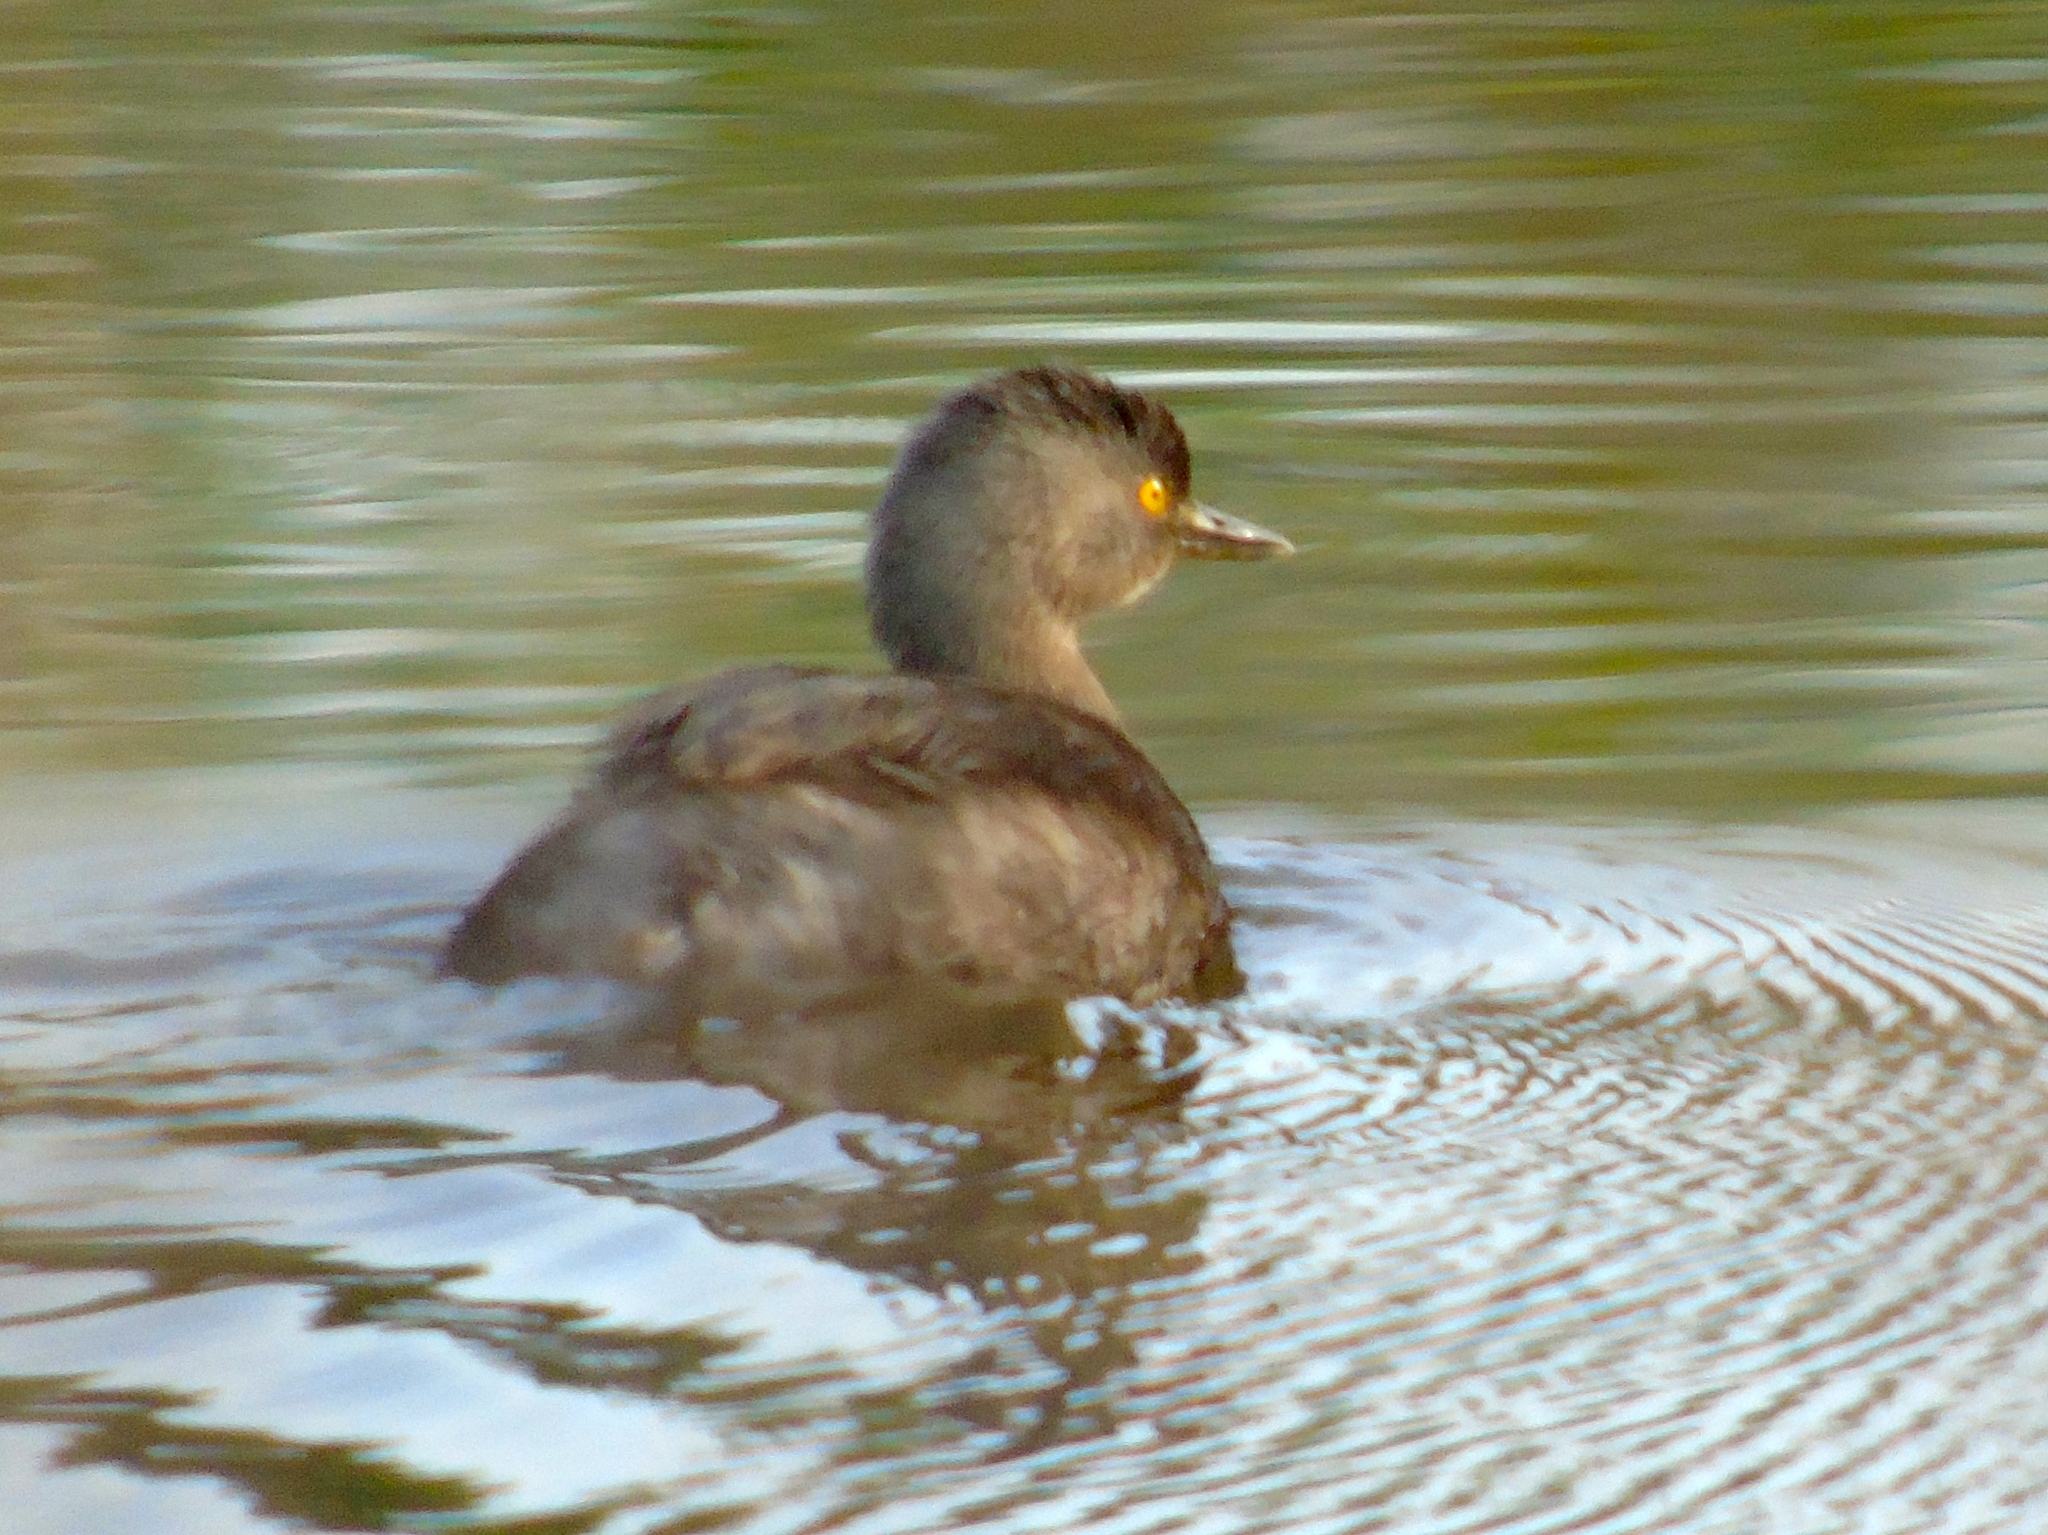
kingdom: Animalia
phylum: Chordata
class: Aves
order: Podicipediformes
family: Podicipedidae
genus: Tachybaptus
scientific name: Tachybaptus dominicus
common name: Least grebe
